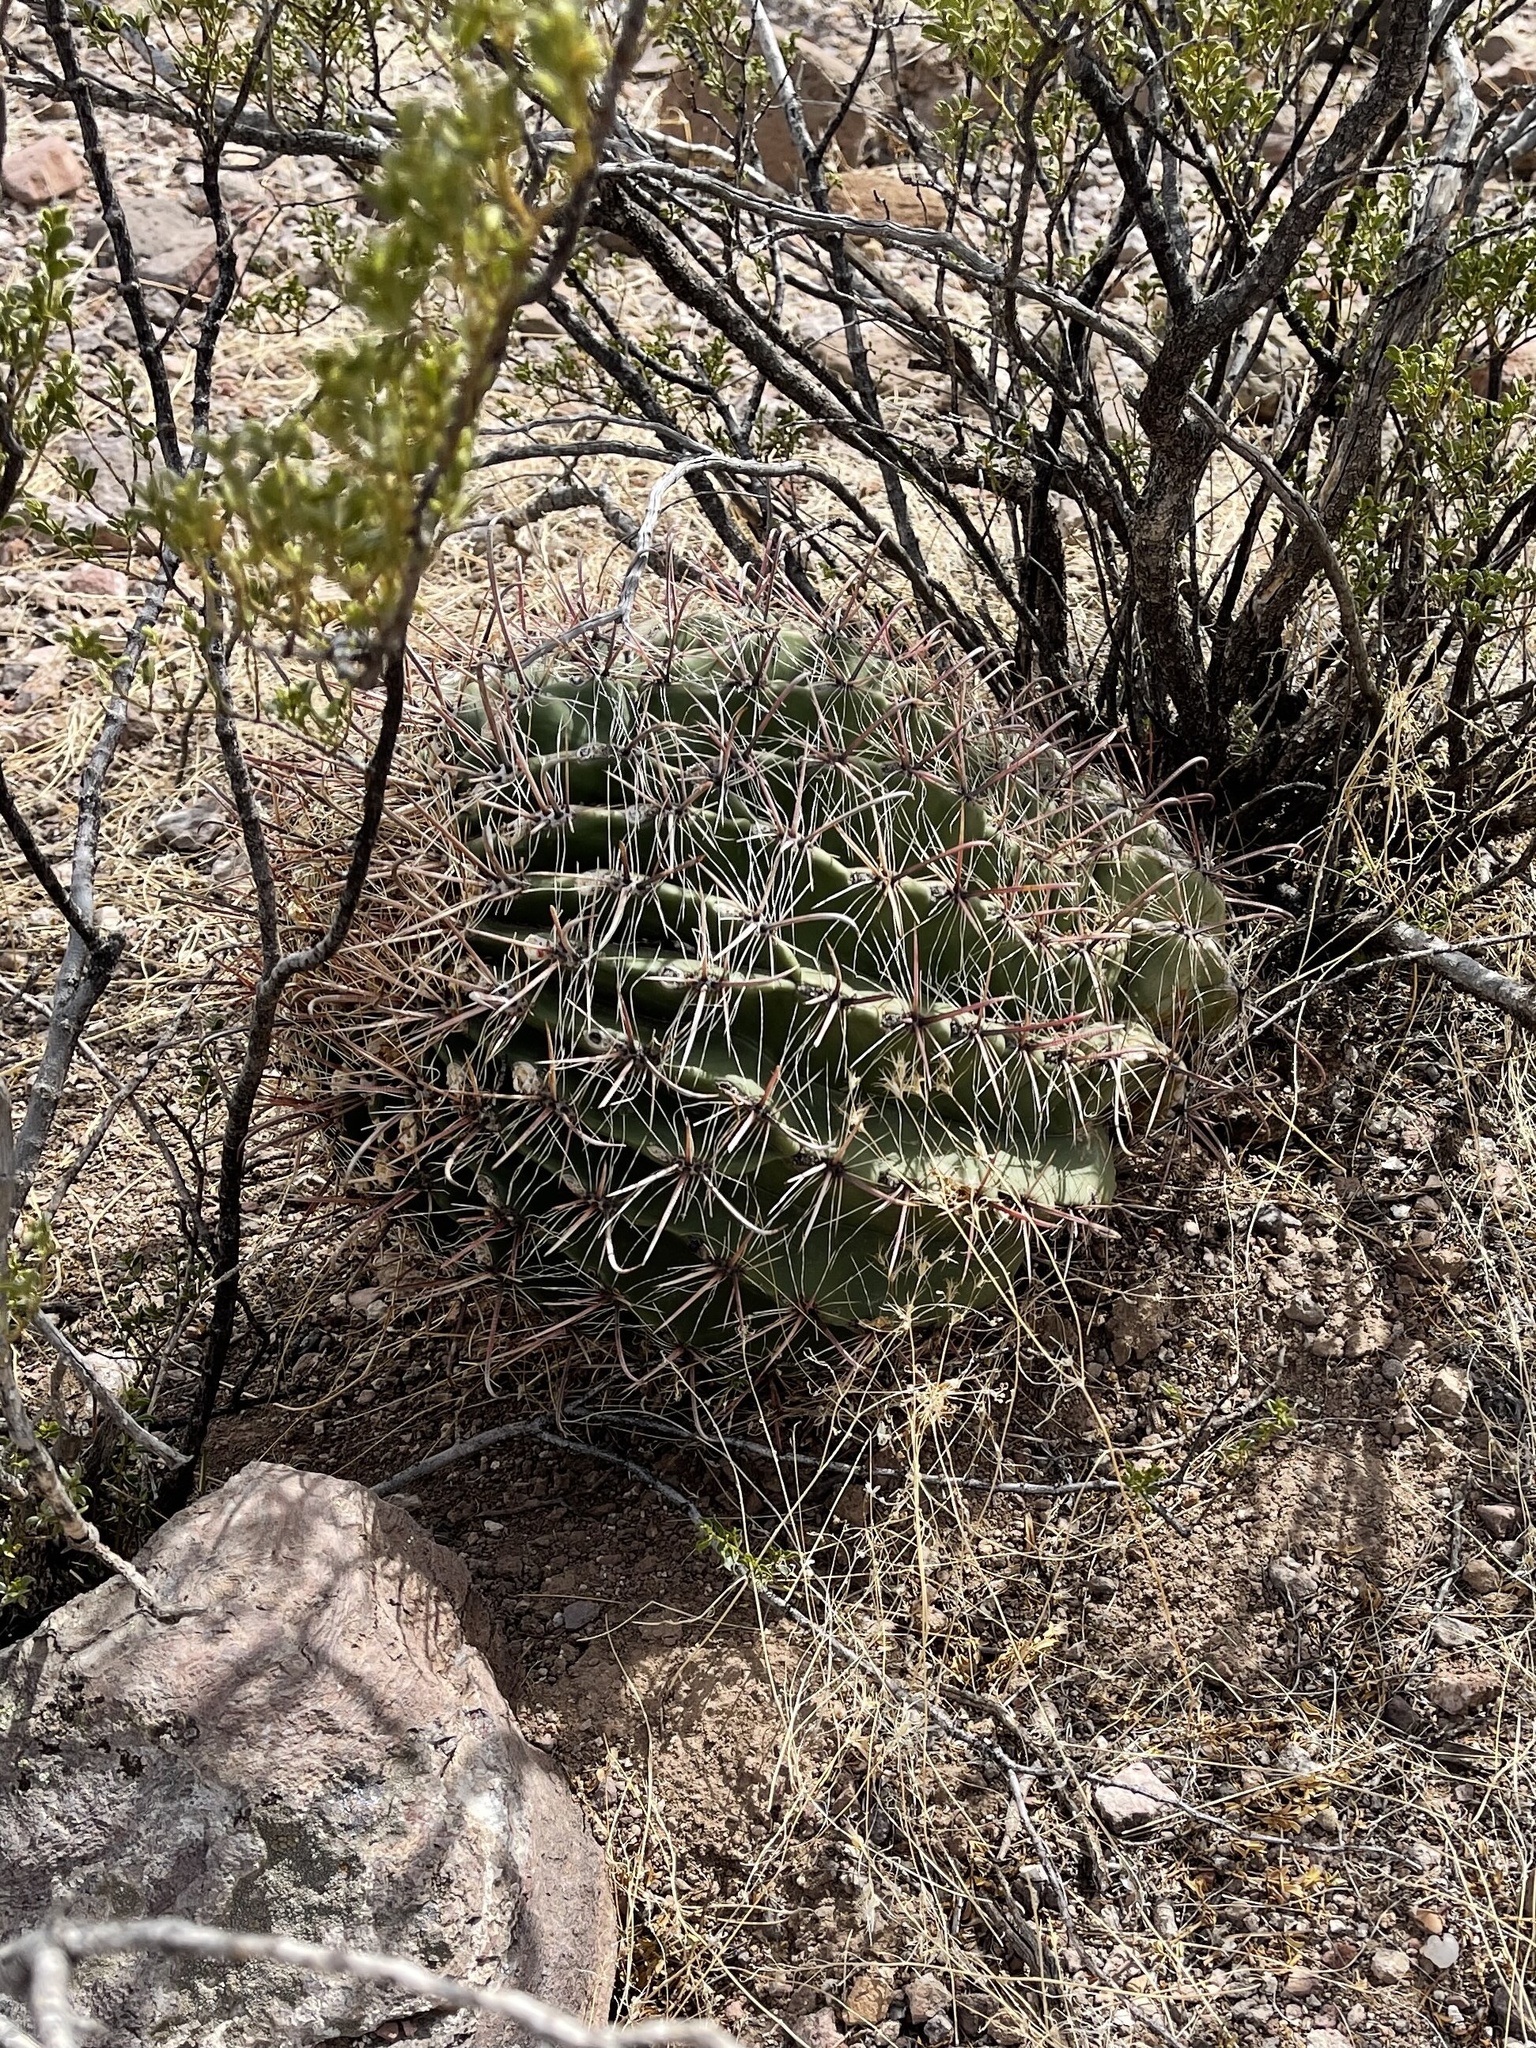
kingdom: Plantae
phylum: Tracheophyta
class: Magnoliopsida
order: Caryophyllales
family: Cactaceae
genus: Ferocactus
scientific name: Ferocactus wislizeni
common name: Candy barrel cactus
